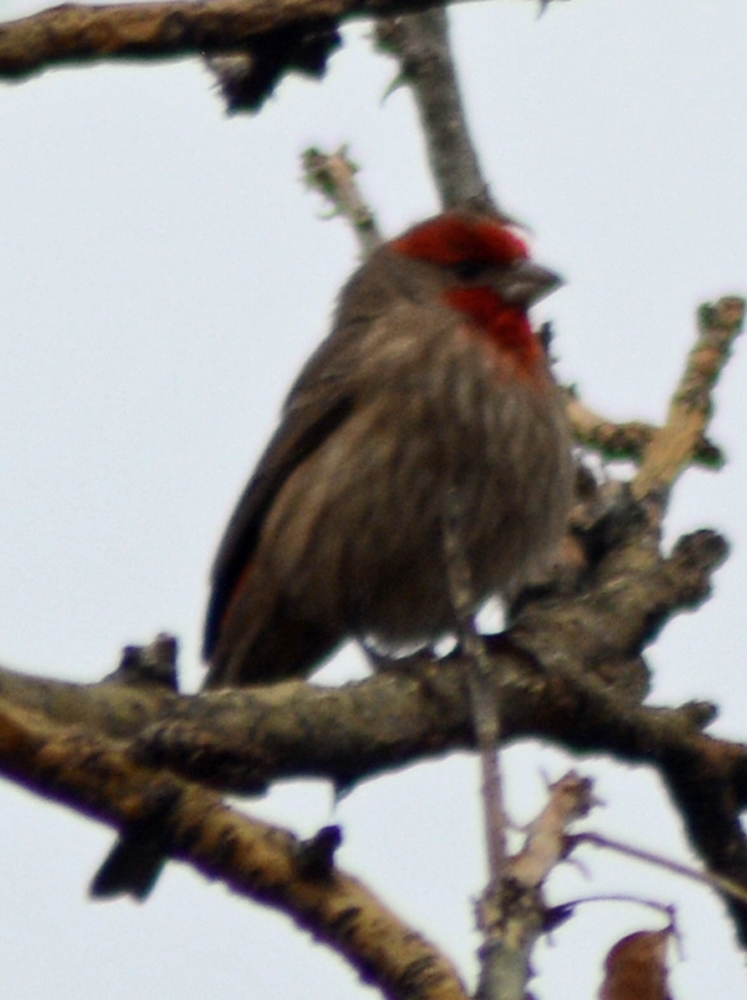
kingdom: Animalia
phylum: Chordata
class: Aves
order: Passeriformes
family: Fringillidae
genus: Haemorhous
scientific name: Haemorhous mexicanus
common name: House finch
